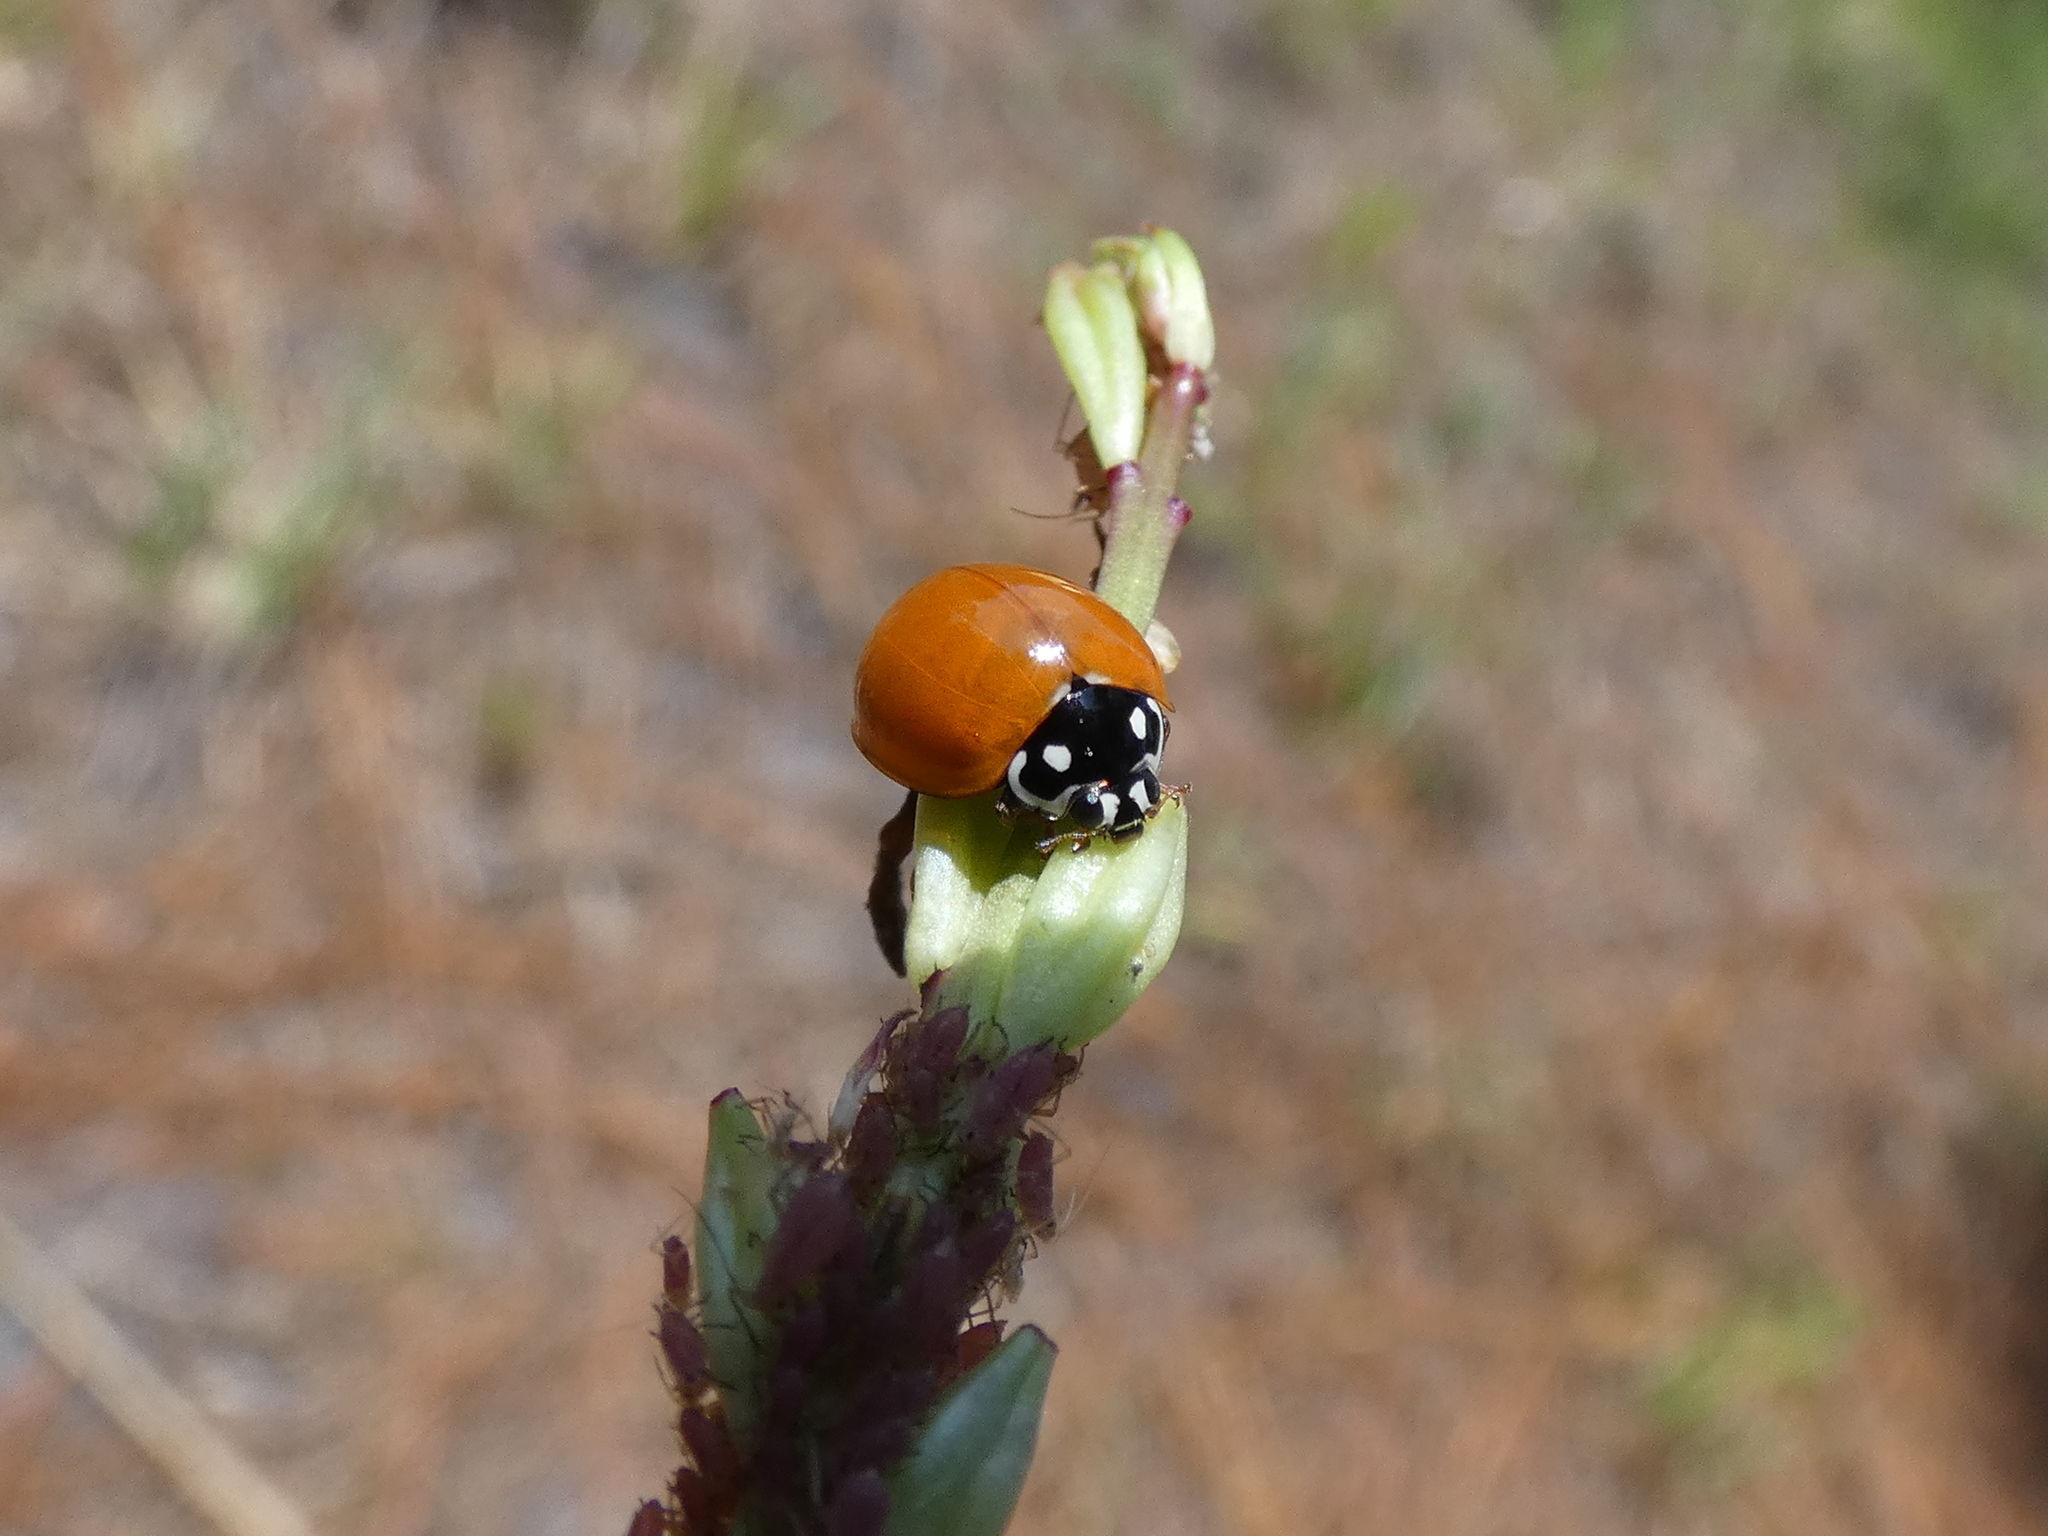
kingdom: Animalia
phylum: Arthropoda
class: Insecta
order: Coleoptera
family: Coccinellidae
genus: Cycloneda
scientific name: Cycloneda sanguinea
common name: Ladybird beetle
